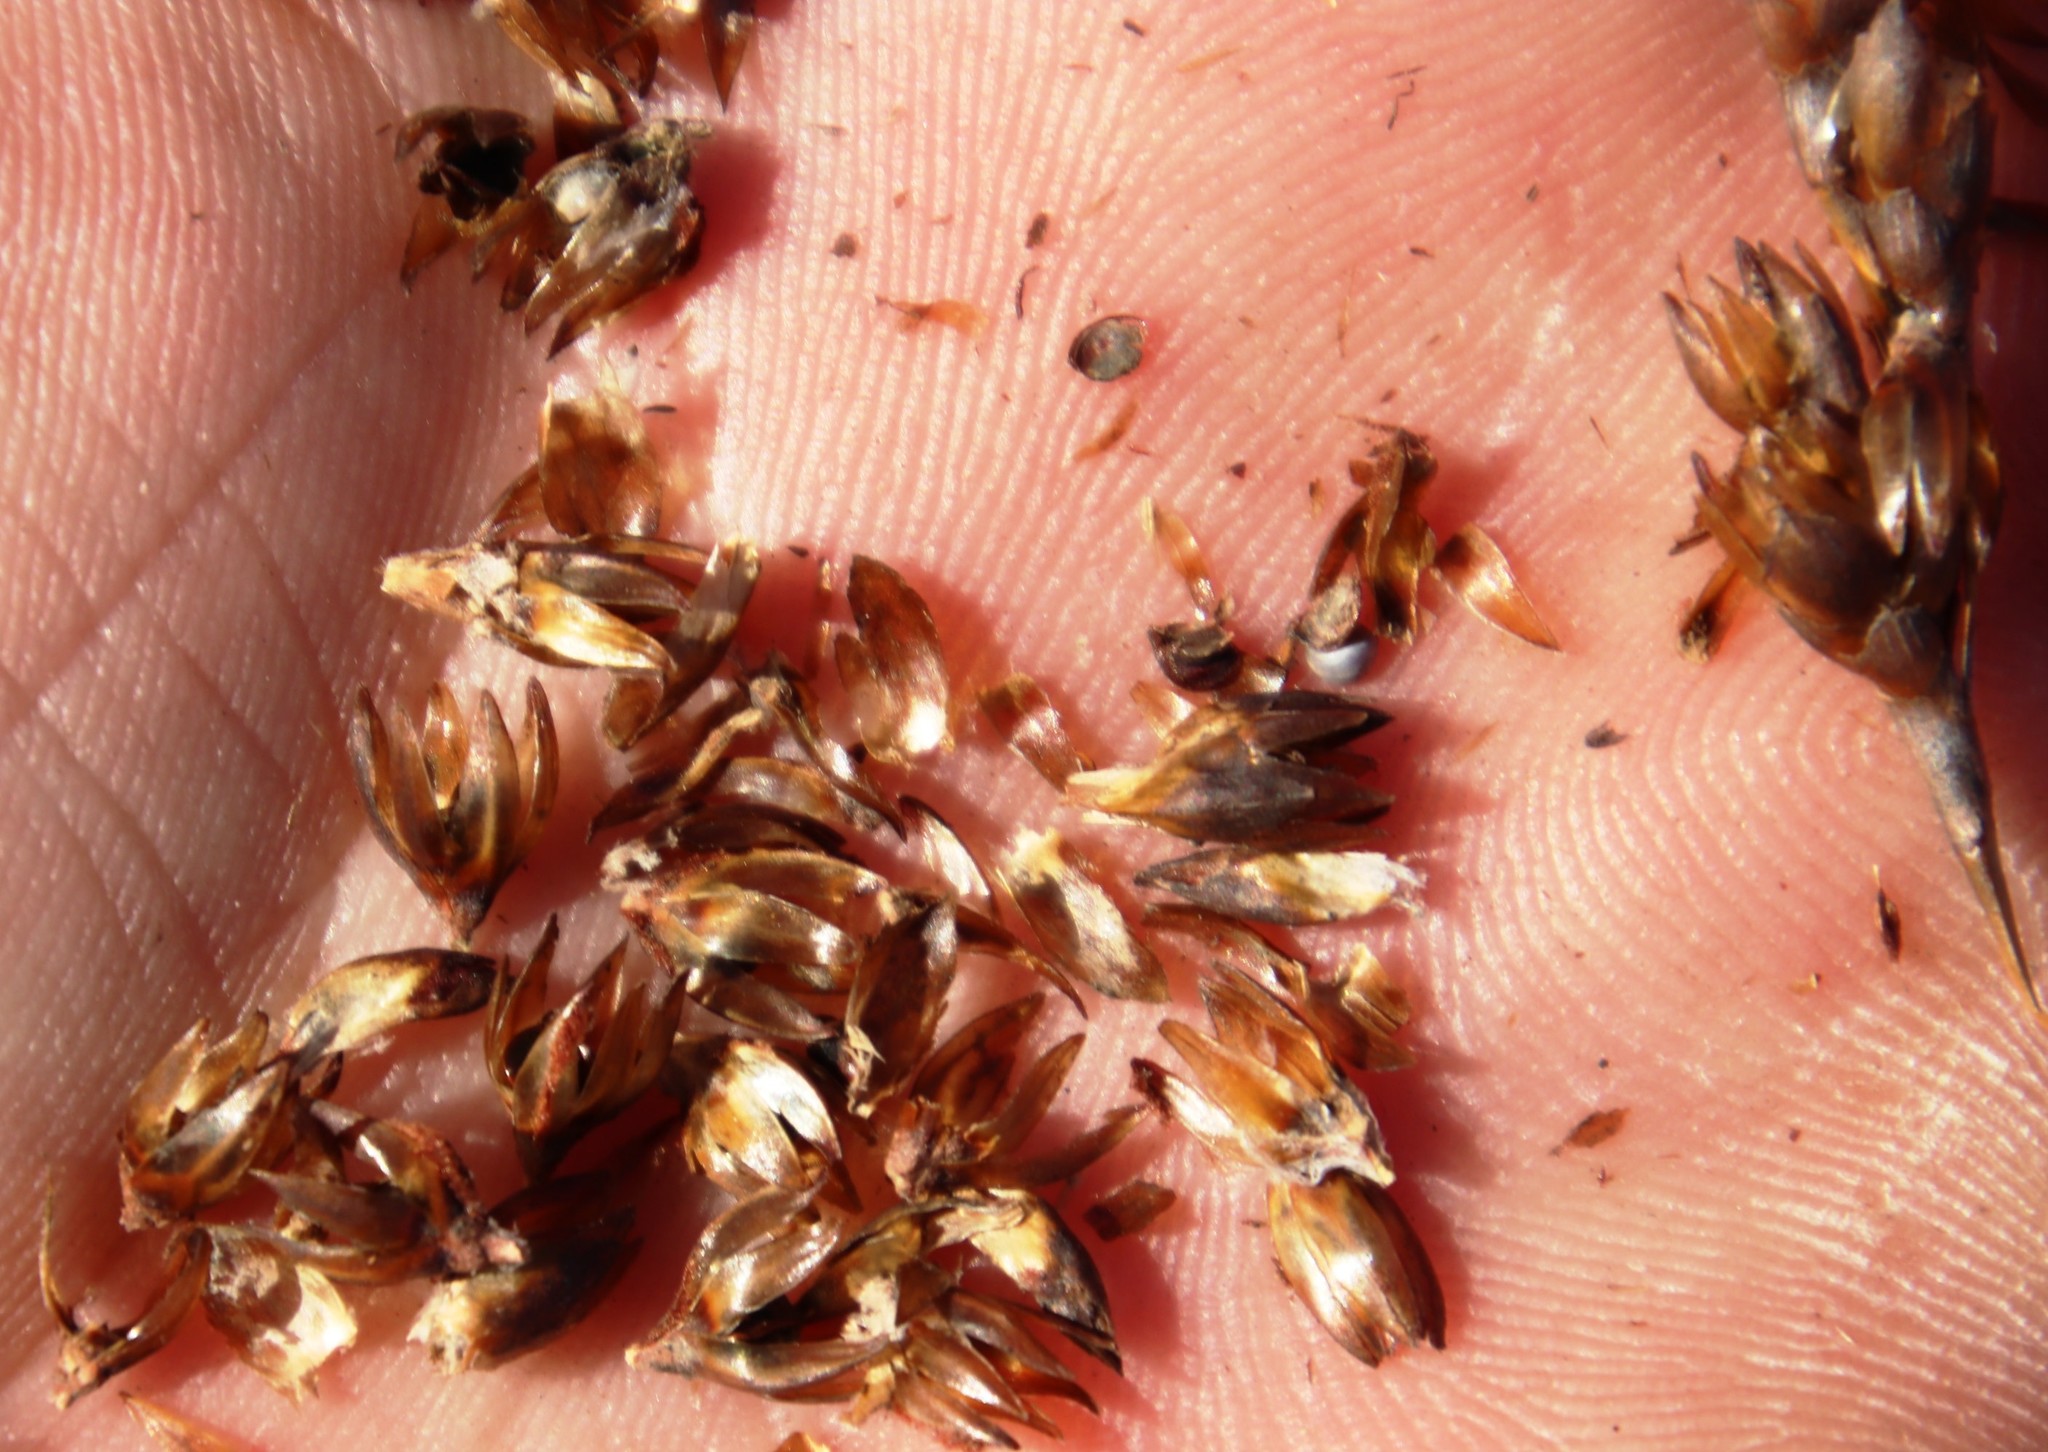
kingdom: Plantae
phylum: Tracheophyta
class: Liliopsida
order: Poales
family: Restionaceae
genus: Restio
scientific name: Restio bifurcus
